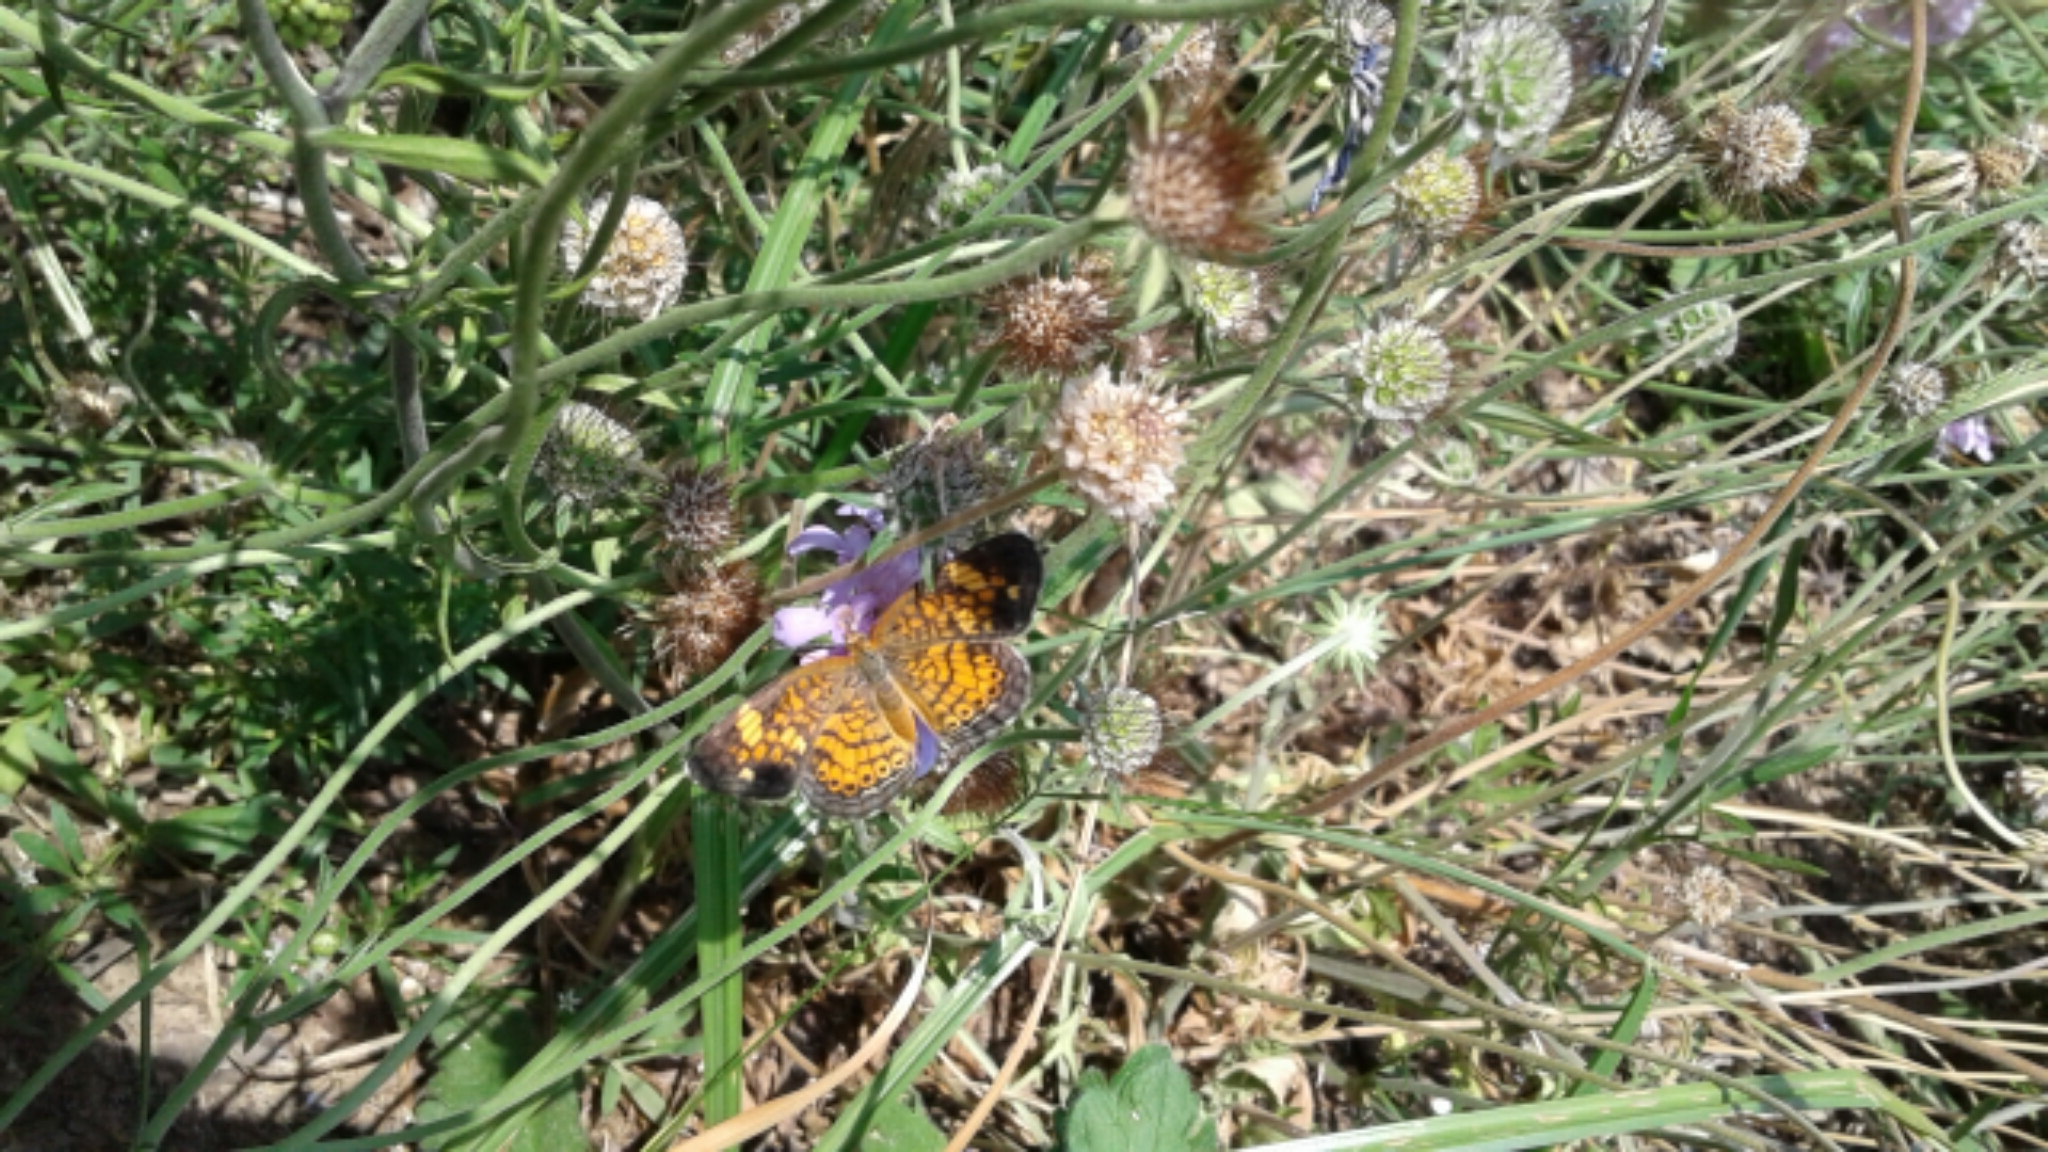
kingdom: Animalia
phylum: Arthropoda
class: Insecta
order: Lepidoptera
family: Nymphalidae
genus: Phyciodes
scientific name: Phyciodes tharos
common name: Pearl crescent
